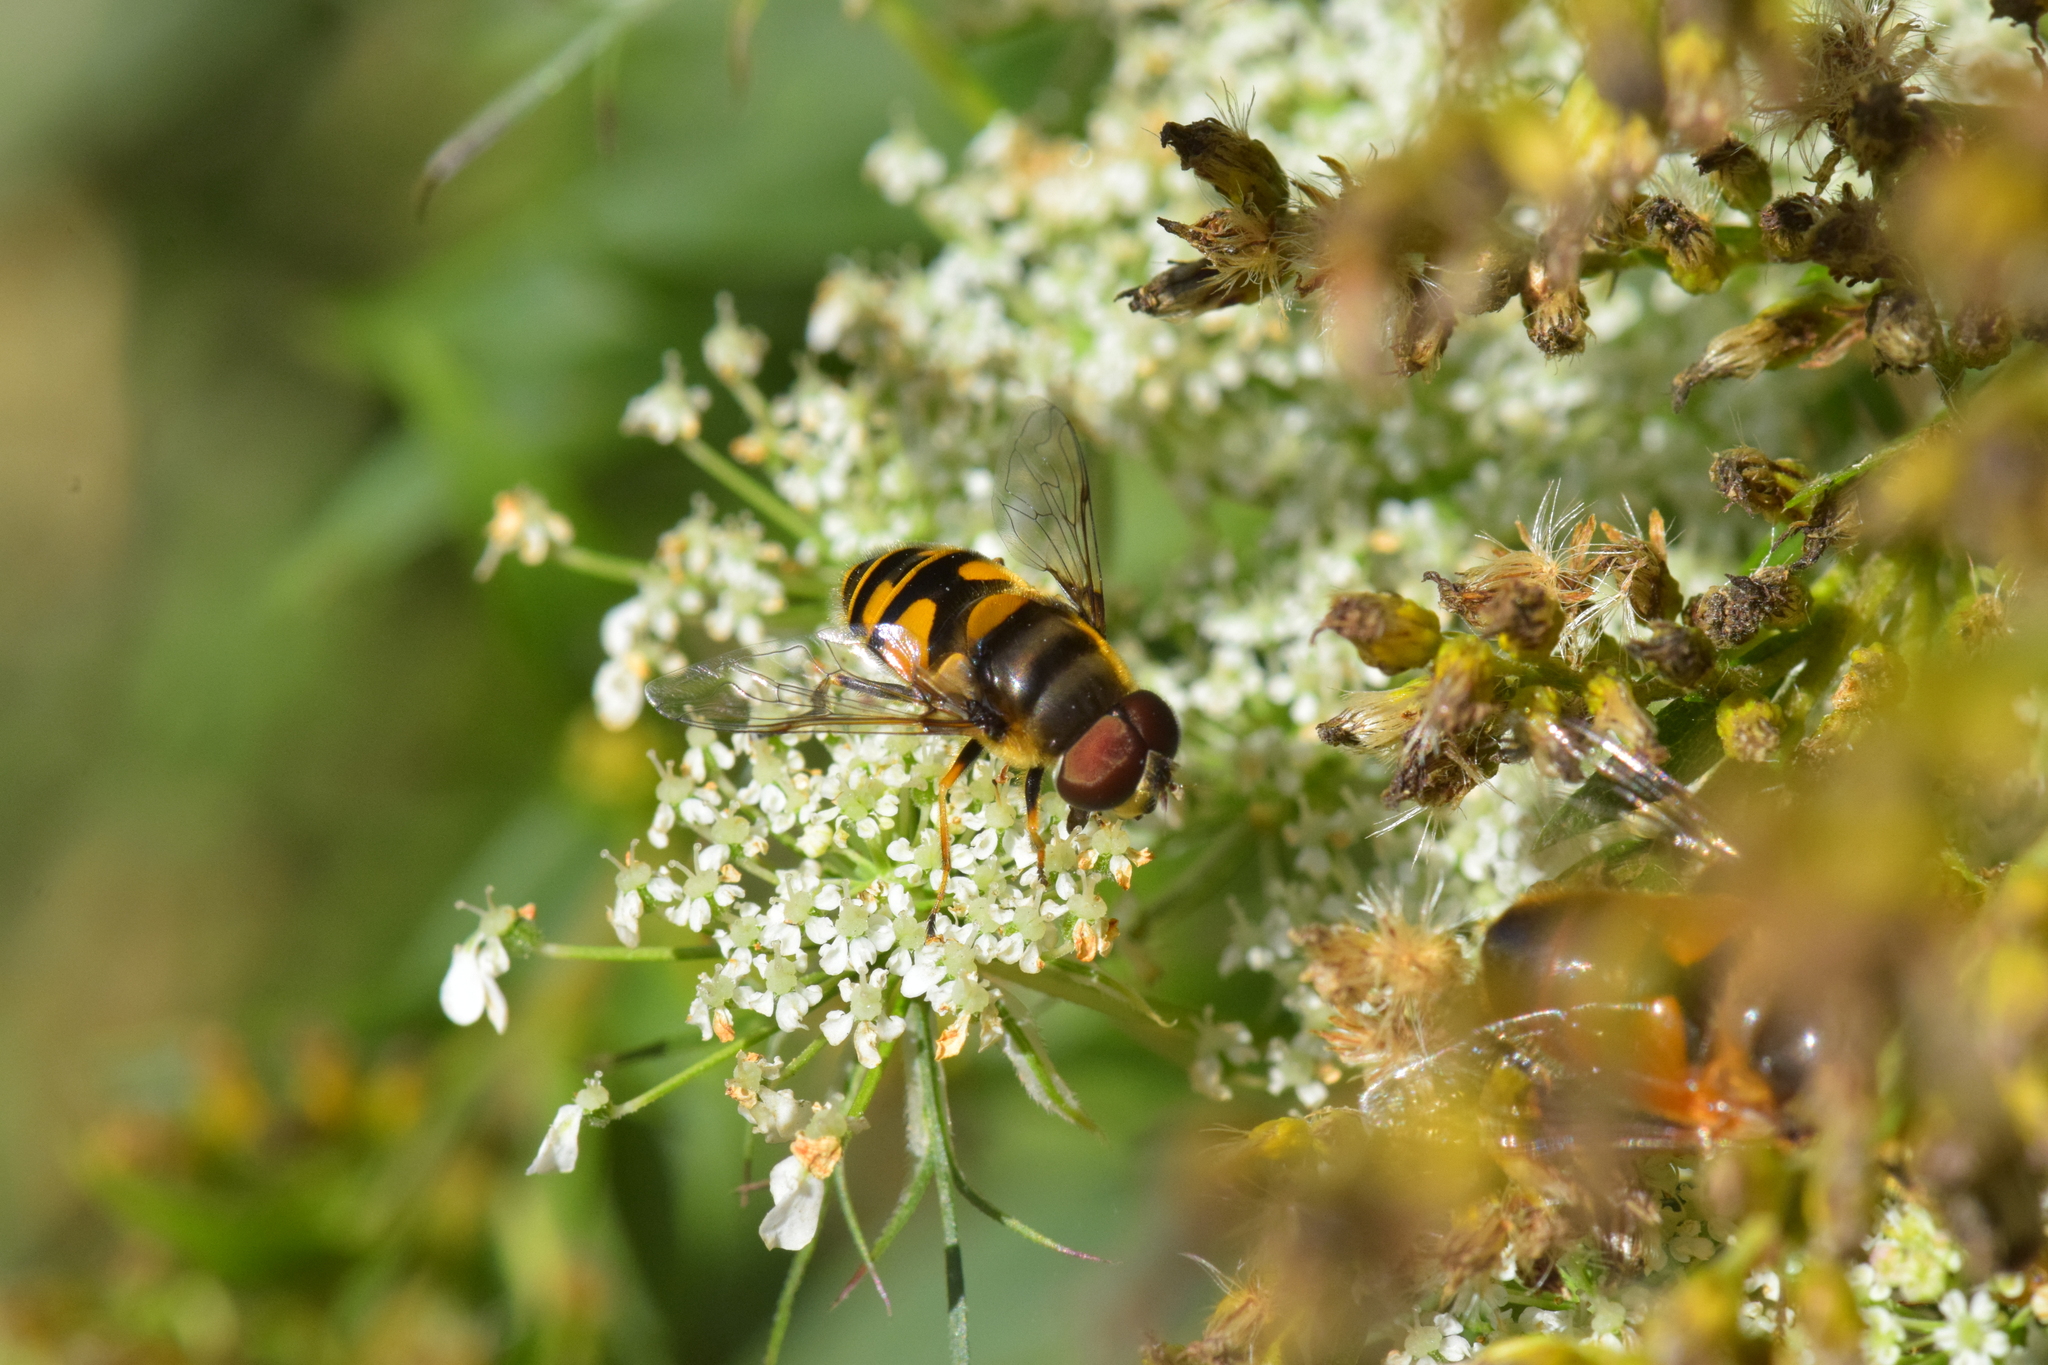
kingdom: Animalia
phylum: Arthropoda
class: Insecta
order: Diptera
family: Syrphidae
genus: Eristalis
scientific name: Eristalis transversa
